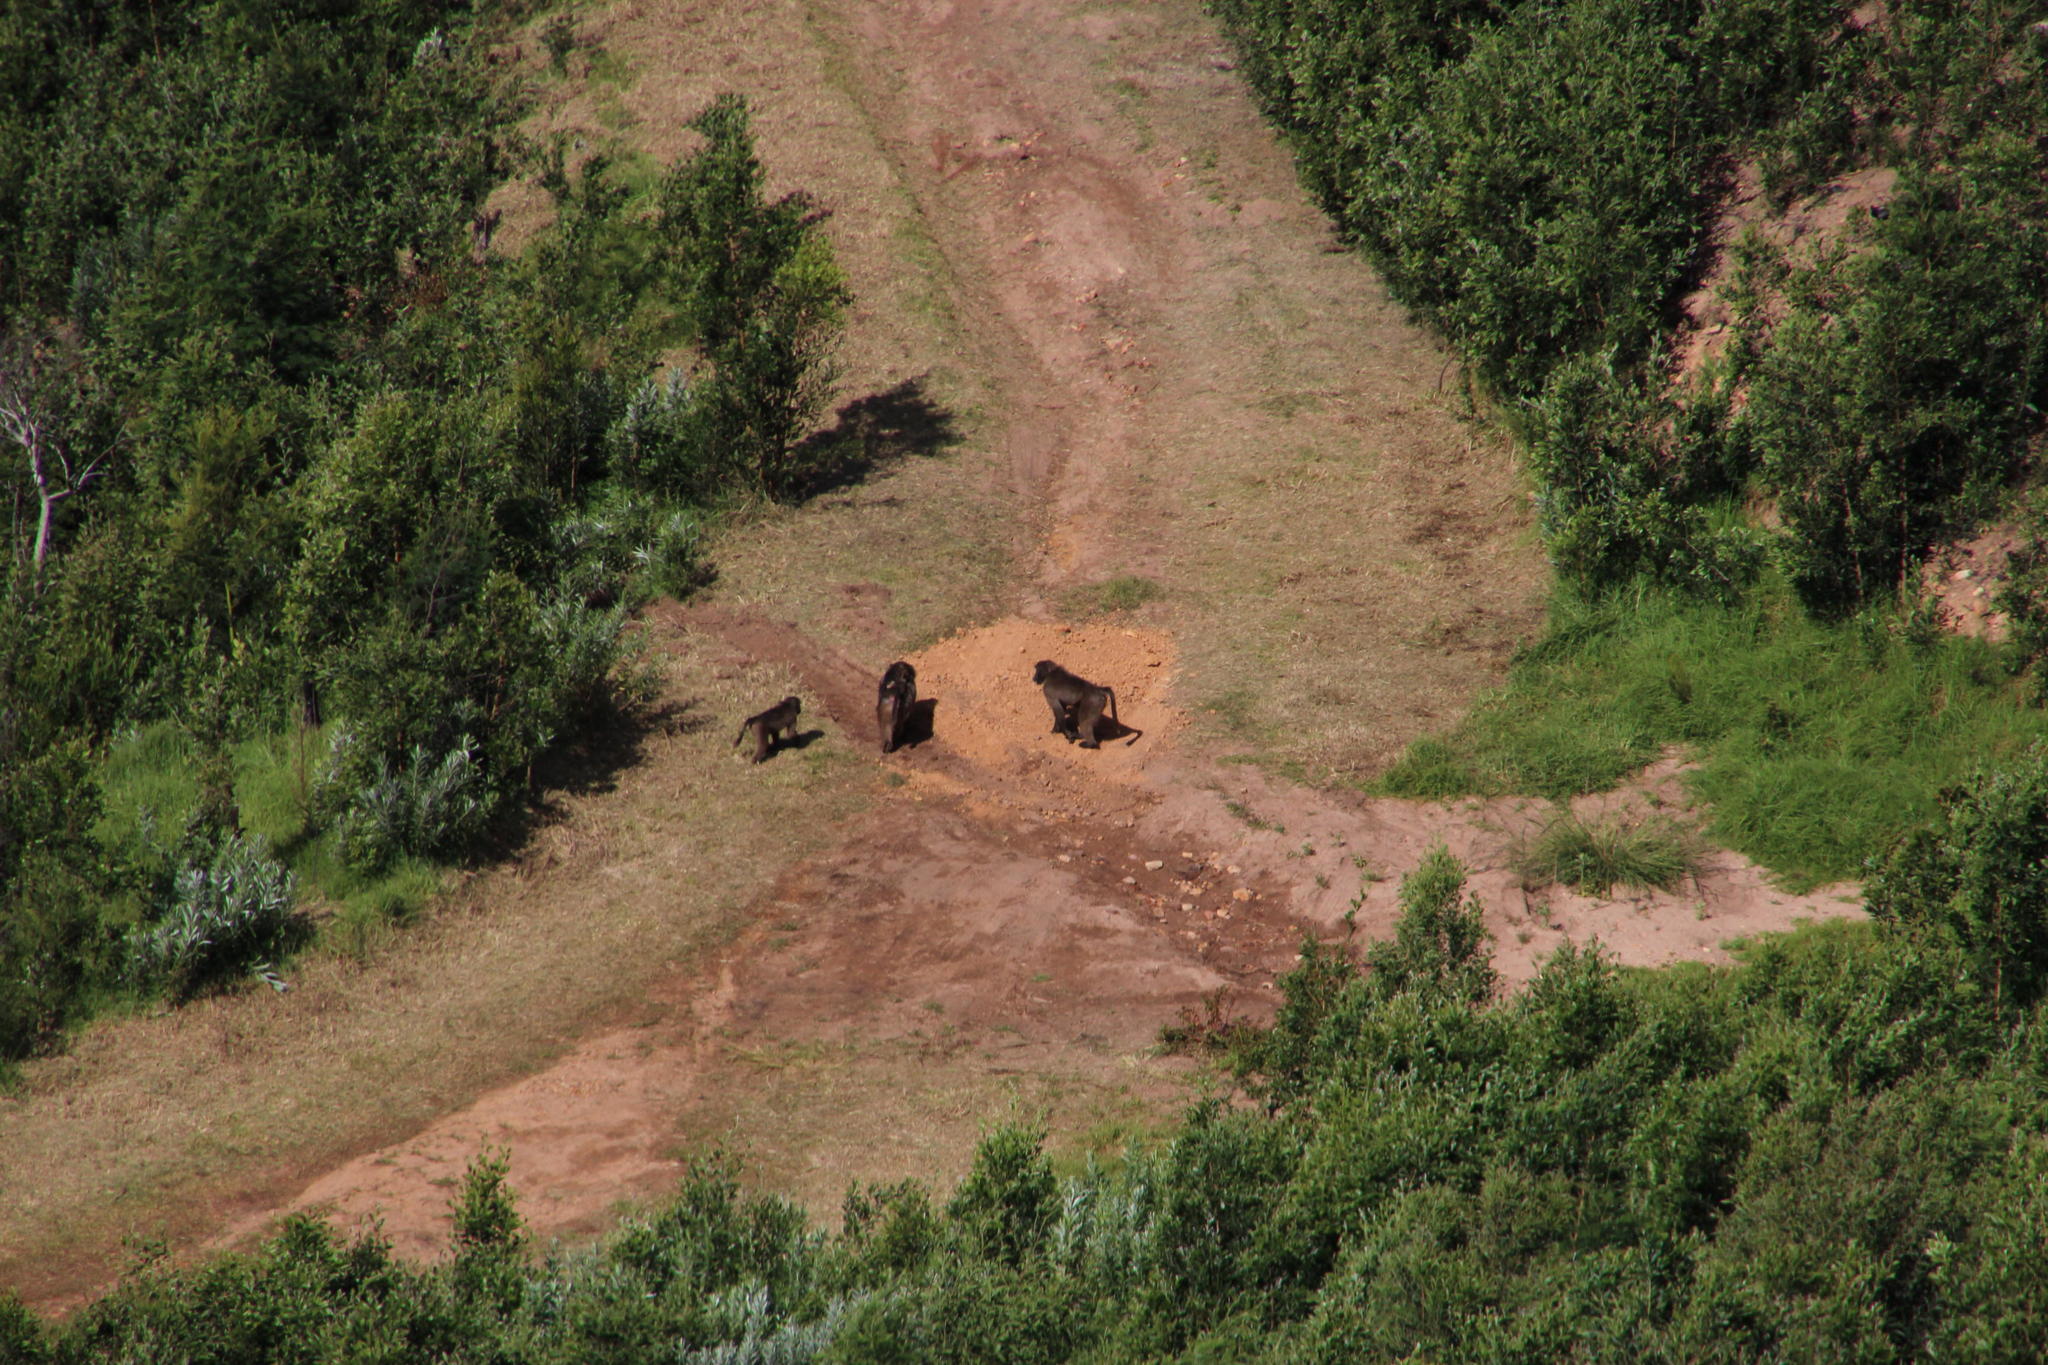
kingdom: Animalia
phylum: Chordata
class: Mammalia
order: Primates
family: Cercopithecidae
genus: Papio
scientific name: Papio ursinus
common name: Chacma baboon
